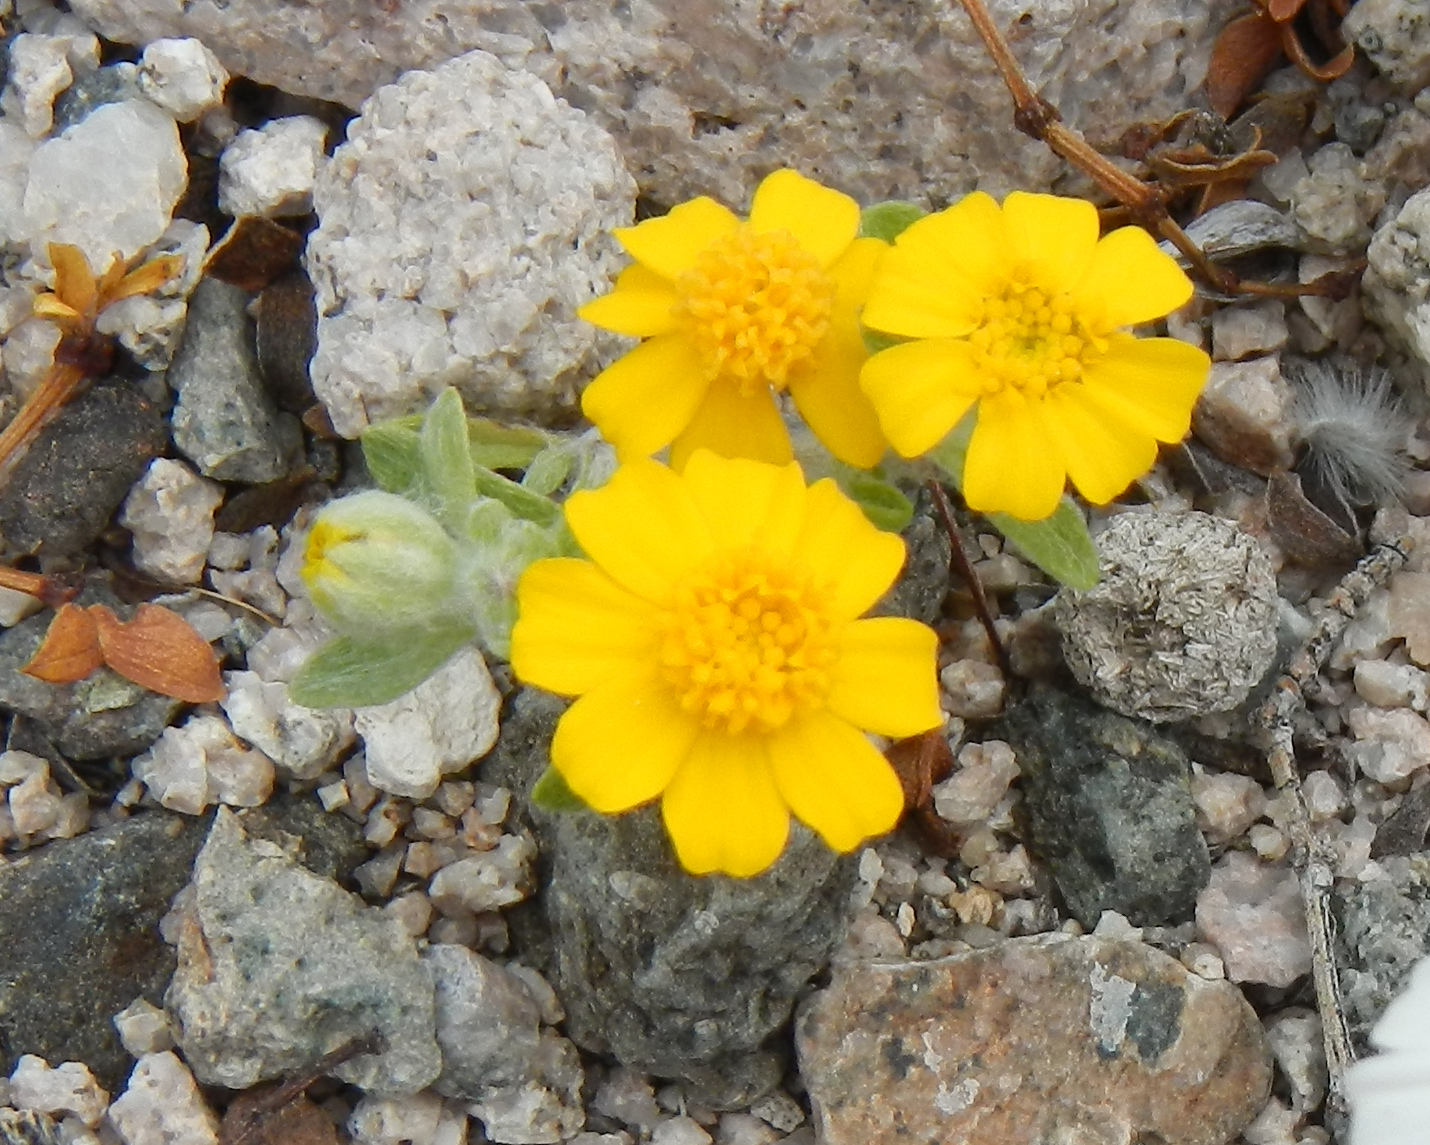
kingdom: Plantae
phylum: Tracheophyta
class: Magnoliopsida
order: Asterales
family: Asteraceae
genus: Eriophyllum
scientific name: Eriophyllum wallacei
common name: Wallace's woolly daisy
